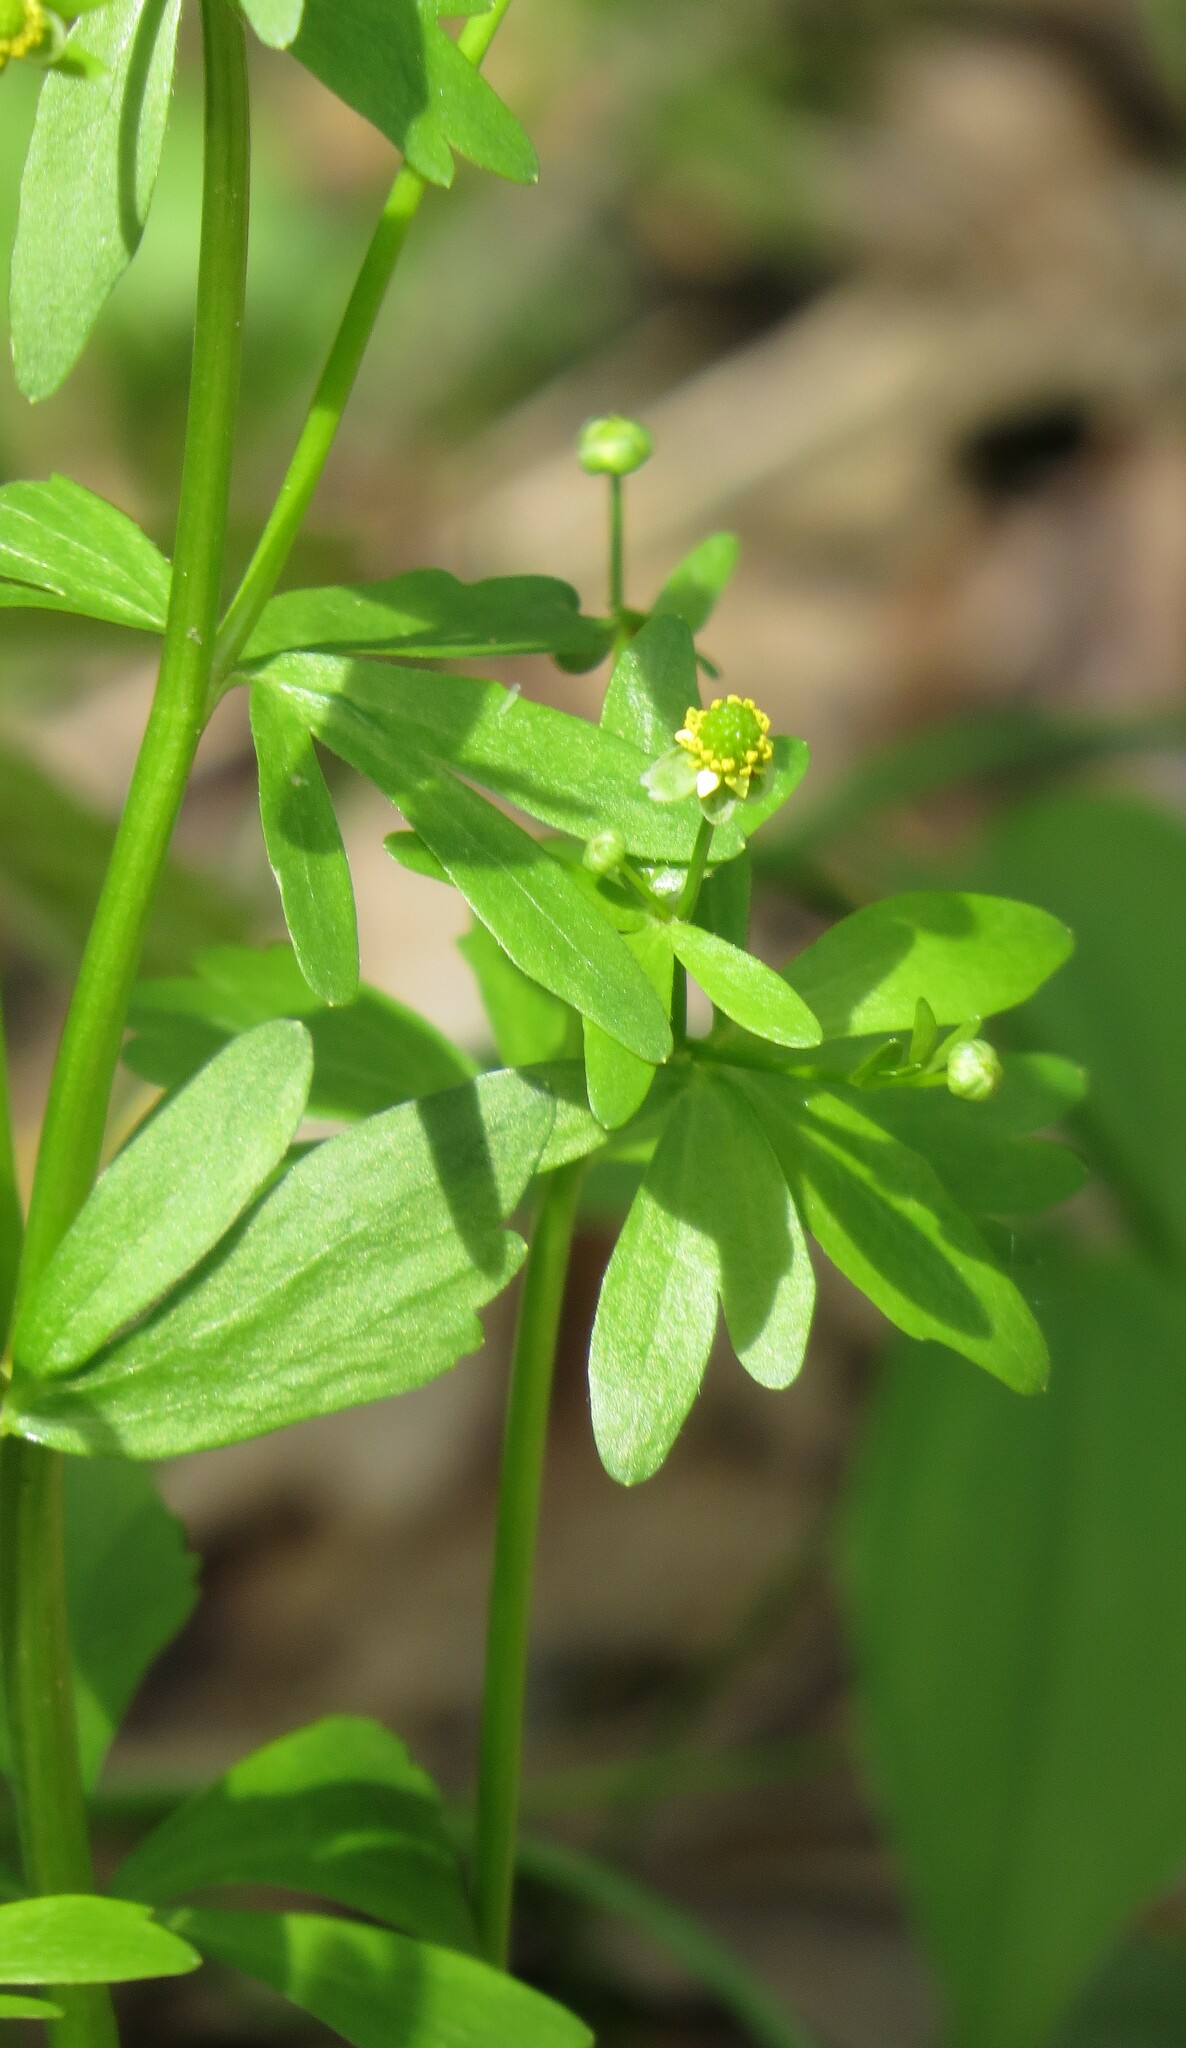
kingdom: Plantae
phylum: Tracheophyta
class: Magnoliopsida
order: Ranunculales
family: Ranunculaceae
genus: Ranunculus
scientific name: Ranunculus abortivus
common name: Early wood buttercup
